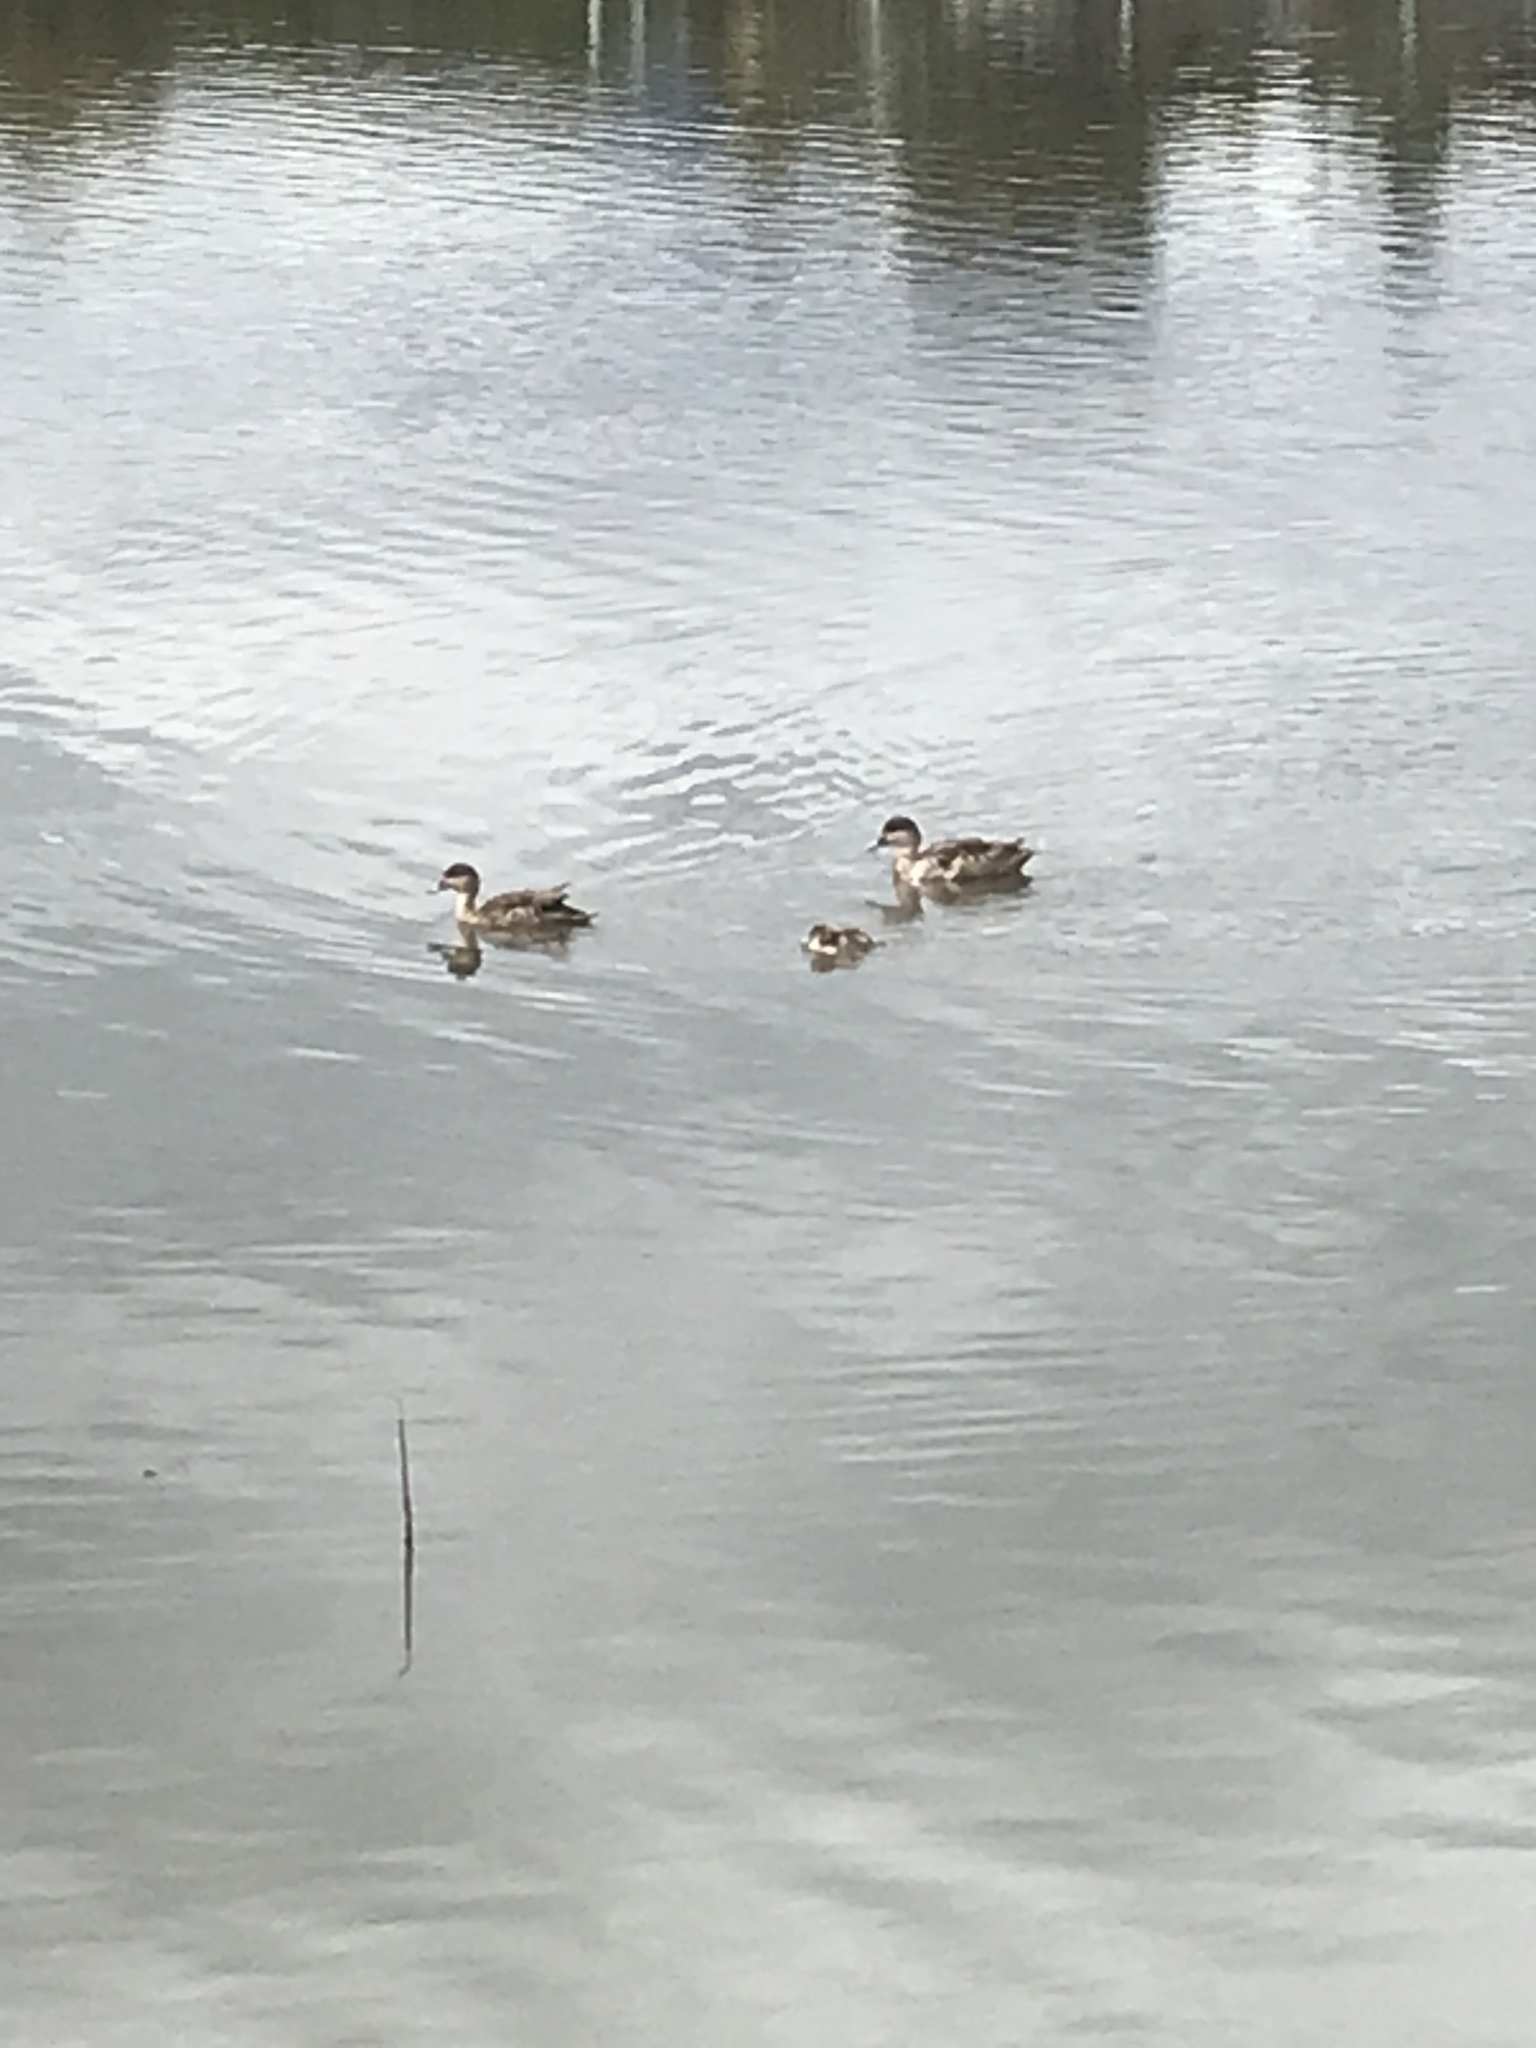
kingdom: Animalia
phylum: Chordata
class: Aves
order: Anseriformes
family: Anatidae
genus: Anas
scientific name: Anas gracilis
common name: Grey teal
